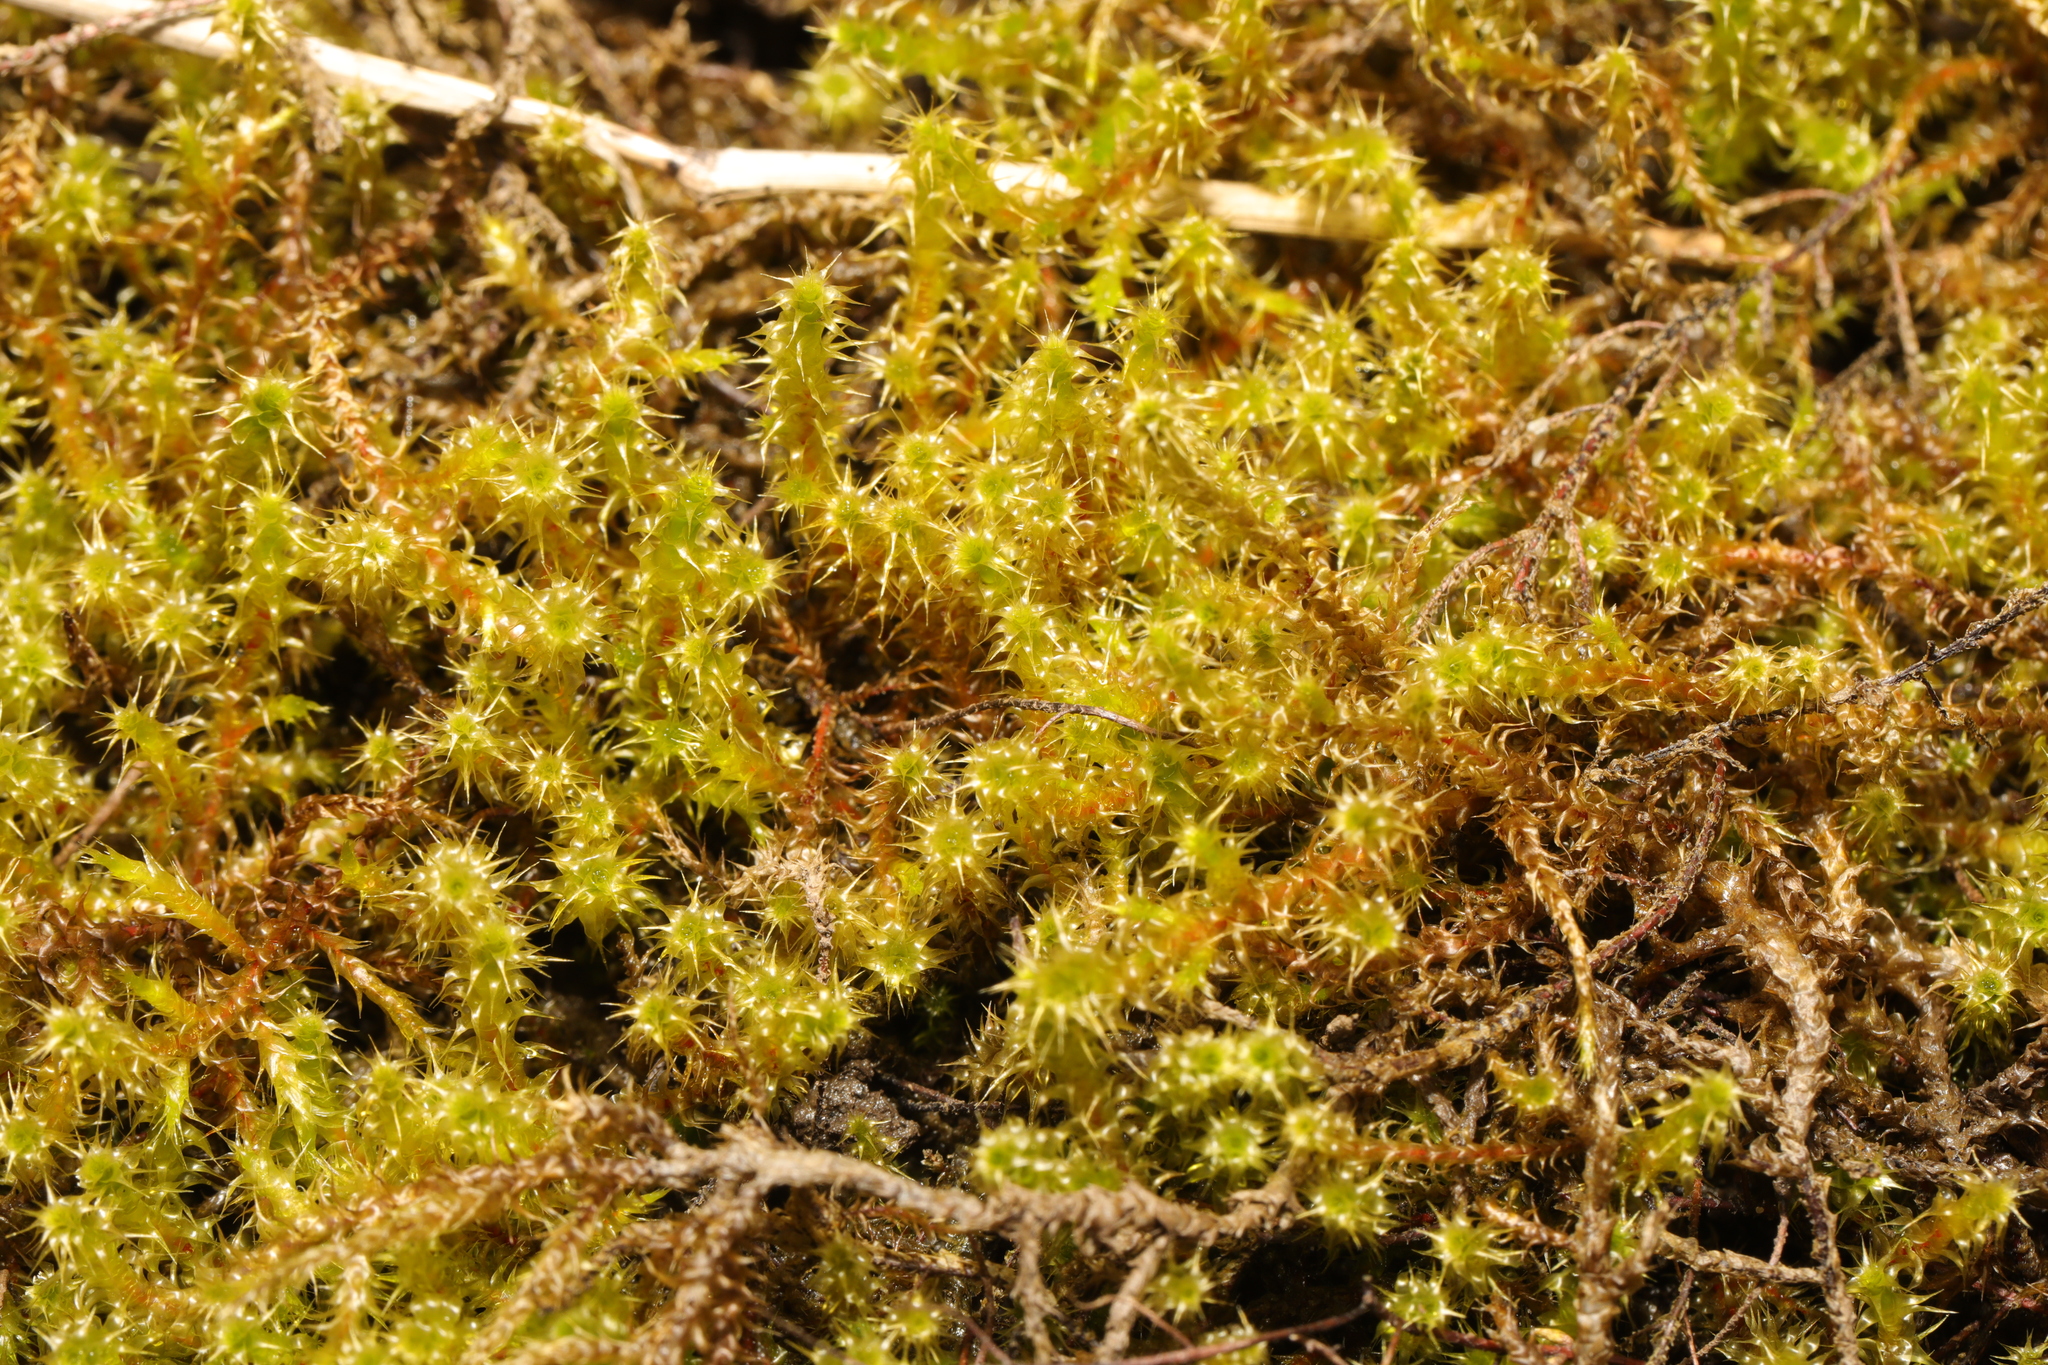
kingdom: Plantae
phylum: Bryophyta
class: Bryopsida
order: Hypnales
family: Hylocomiaceae
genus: Rhytidiadelphus
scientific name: Rhytidiadelphus squarrosus
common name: Springy turf-moss
